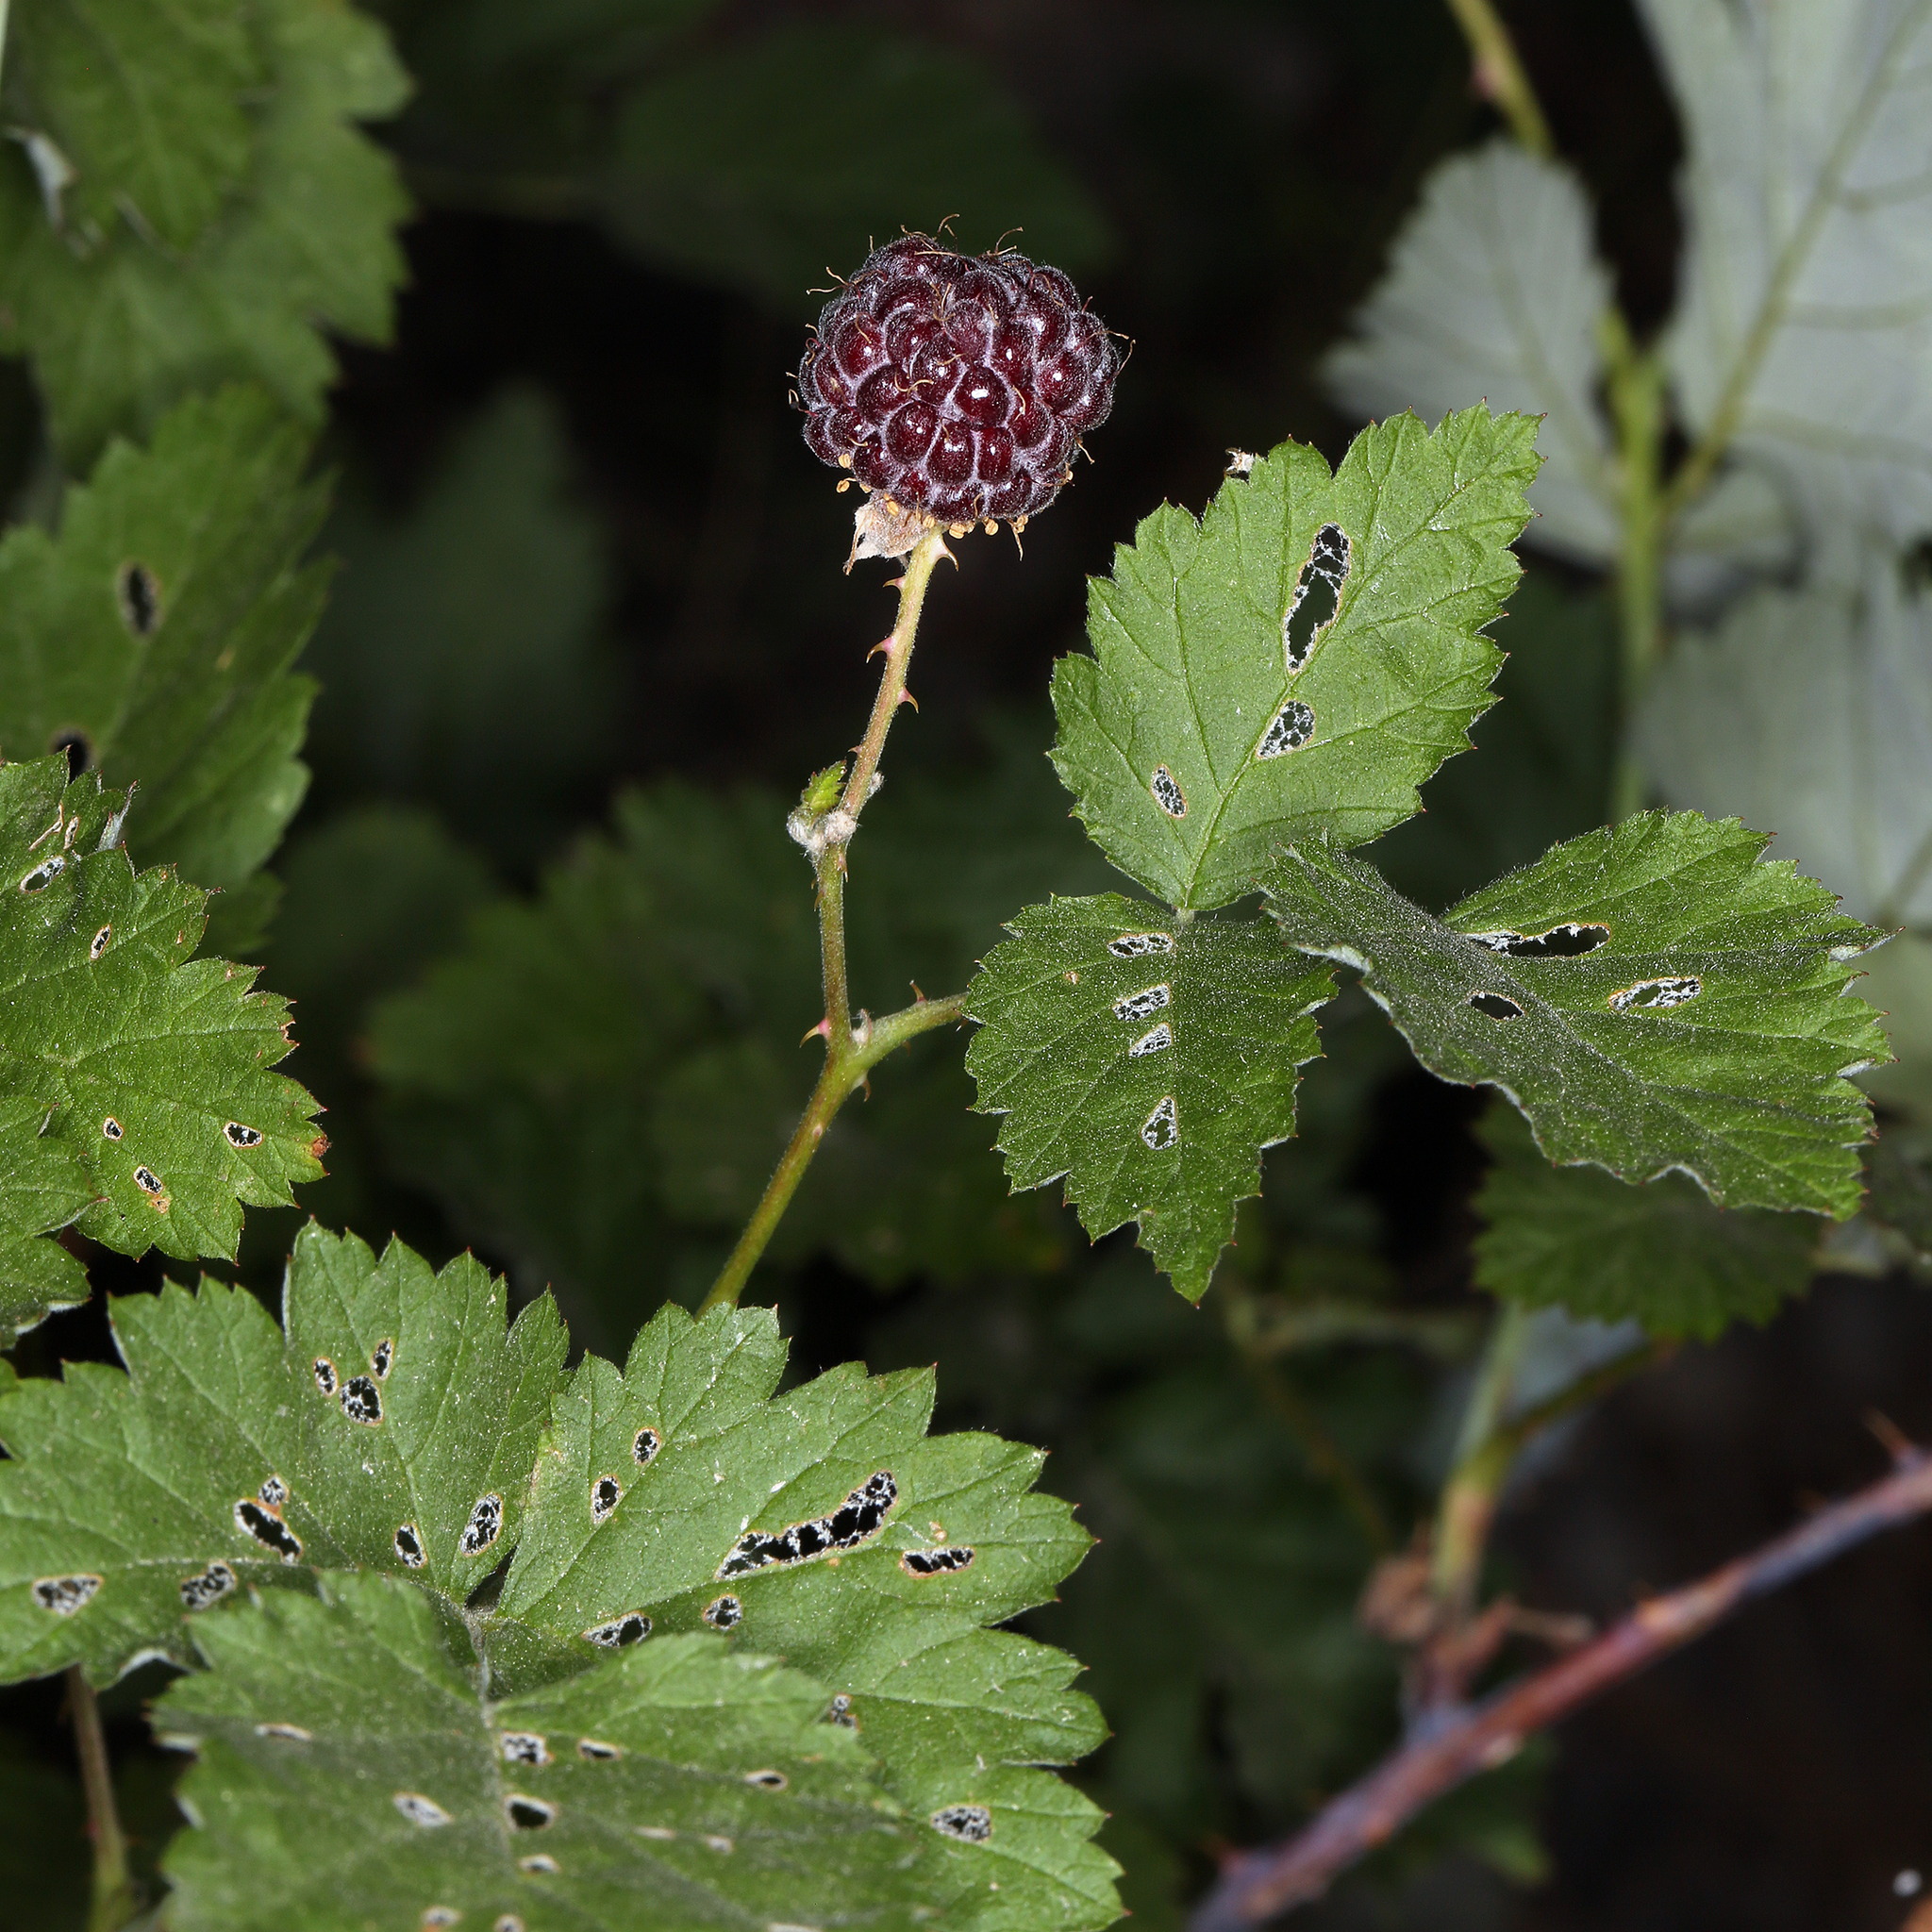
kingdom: Plantae
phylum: Tracheophyta
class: Magnoliopsida
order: Rosales
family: Rosaceae
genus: Rubus
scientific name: Rubus leucodermis
